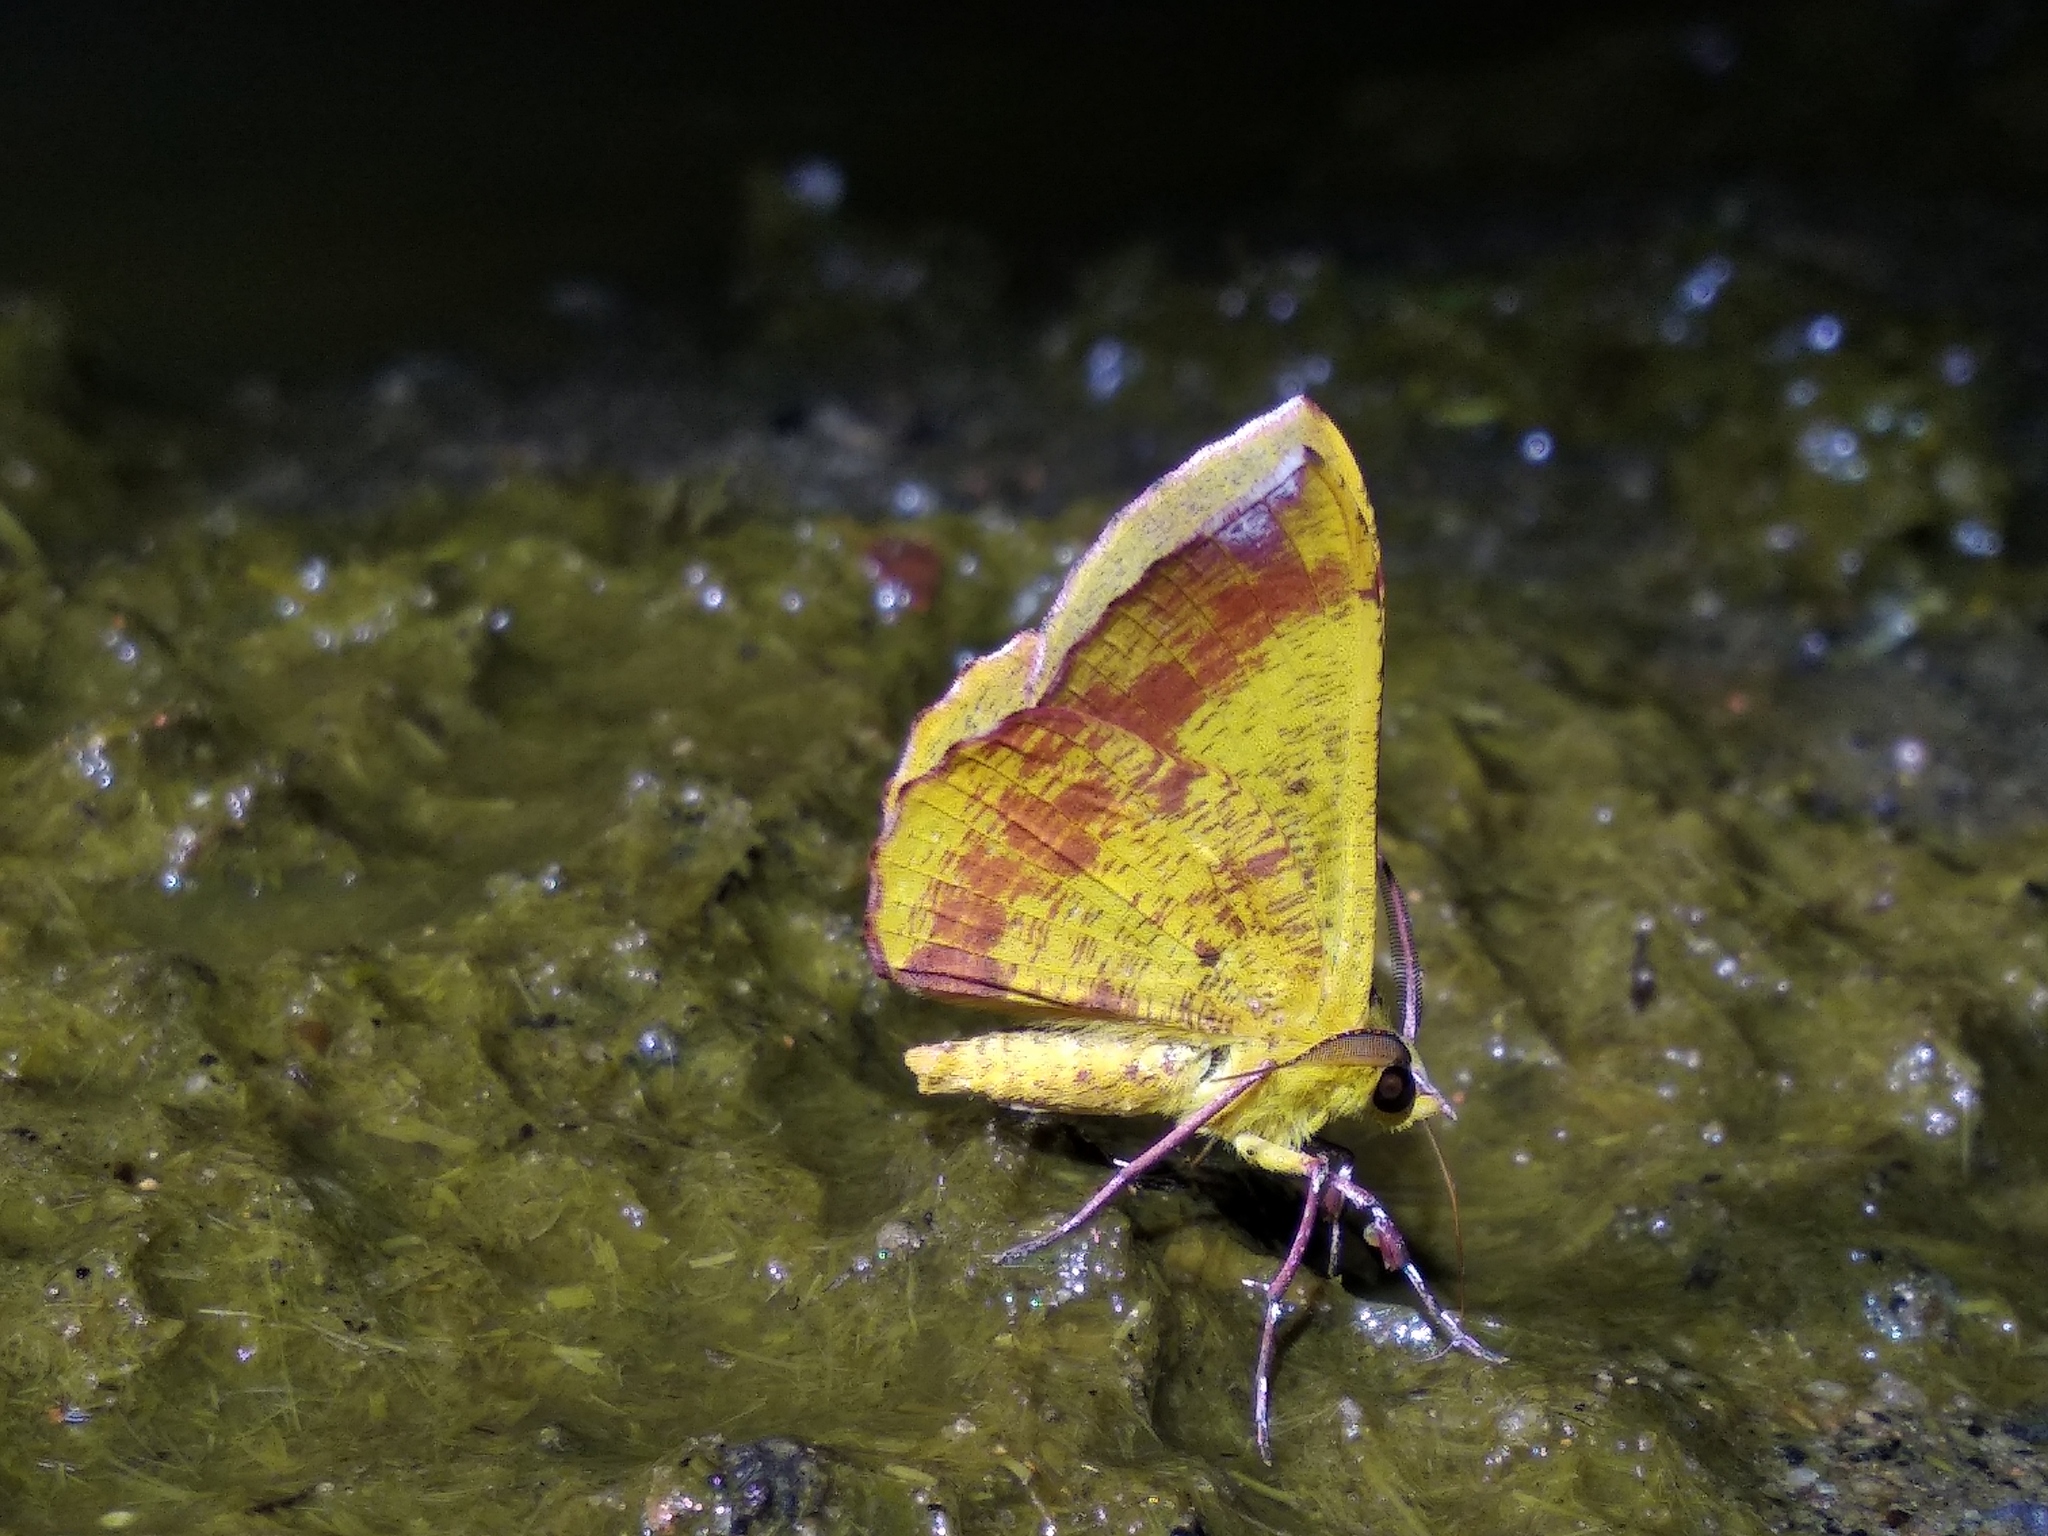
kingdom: Animalia
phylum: Arthropoda
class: Insecta
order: Lepidoptera
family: Geometridae
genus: Hyperythra
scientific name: Hyperythra lutea
